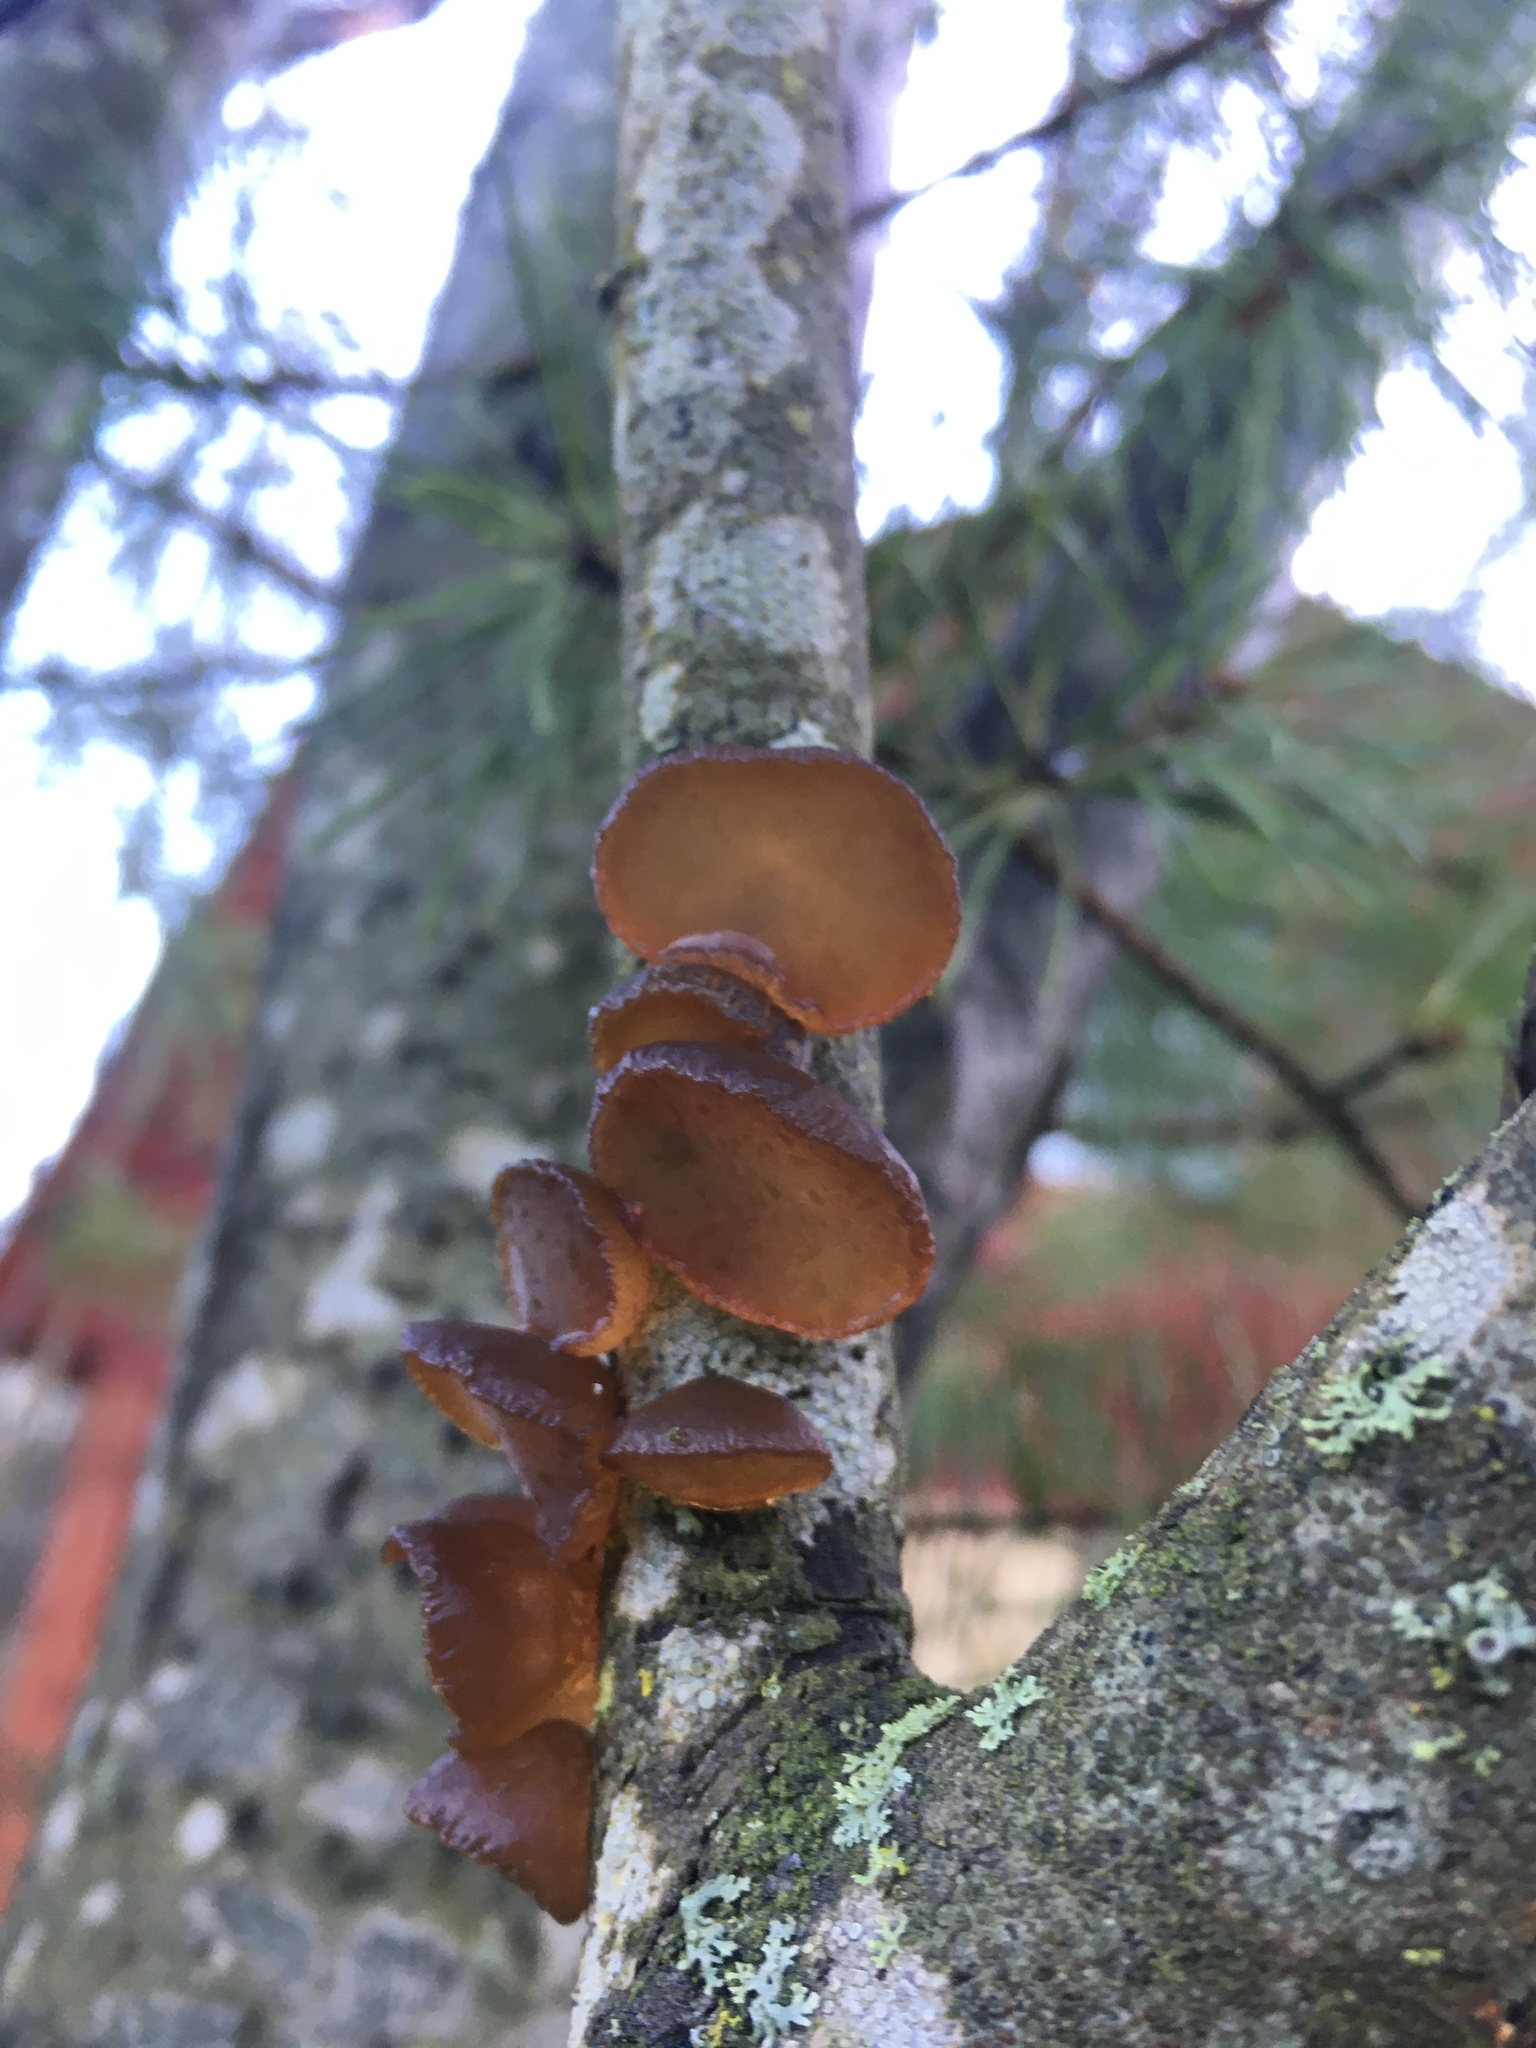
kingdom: Fungi
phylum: Basidiomycota
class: Agaricomycetes
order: Auriculariales
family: Auriculariaceae
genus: Exidia
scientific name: Exidia recisa
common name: Amber jelly
